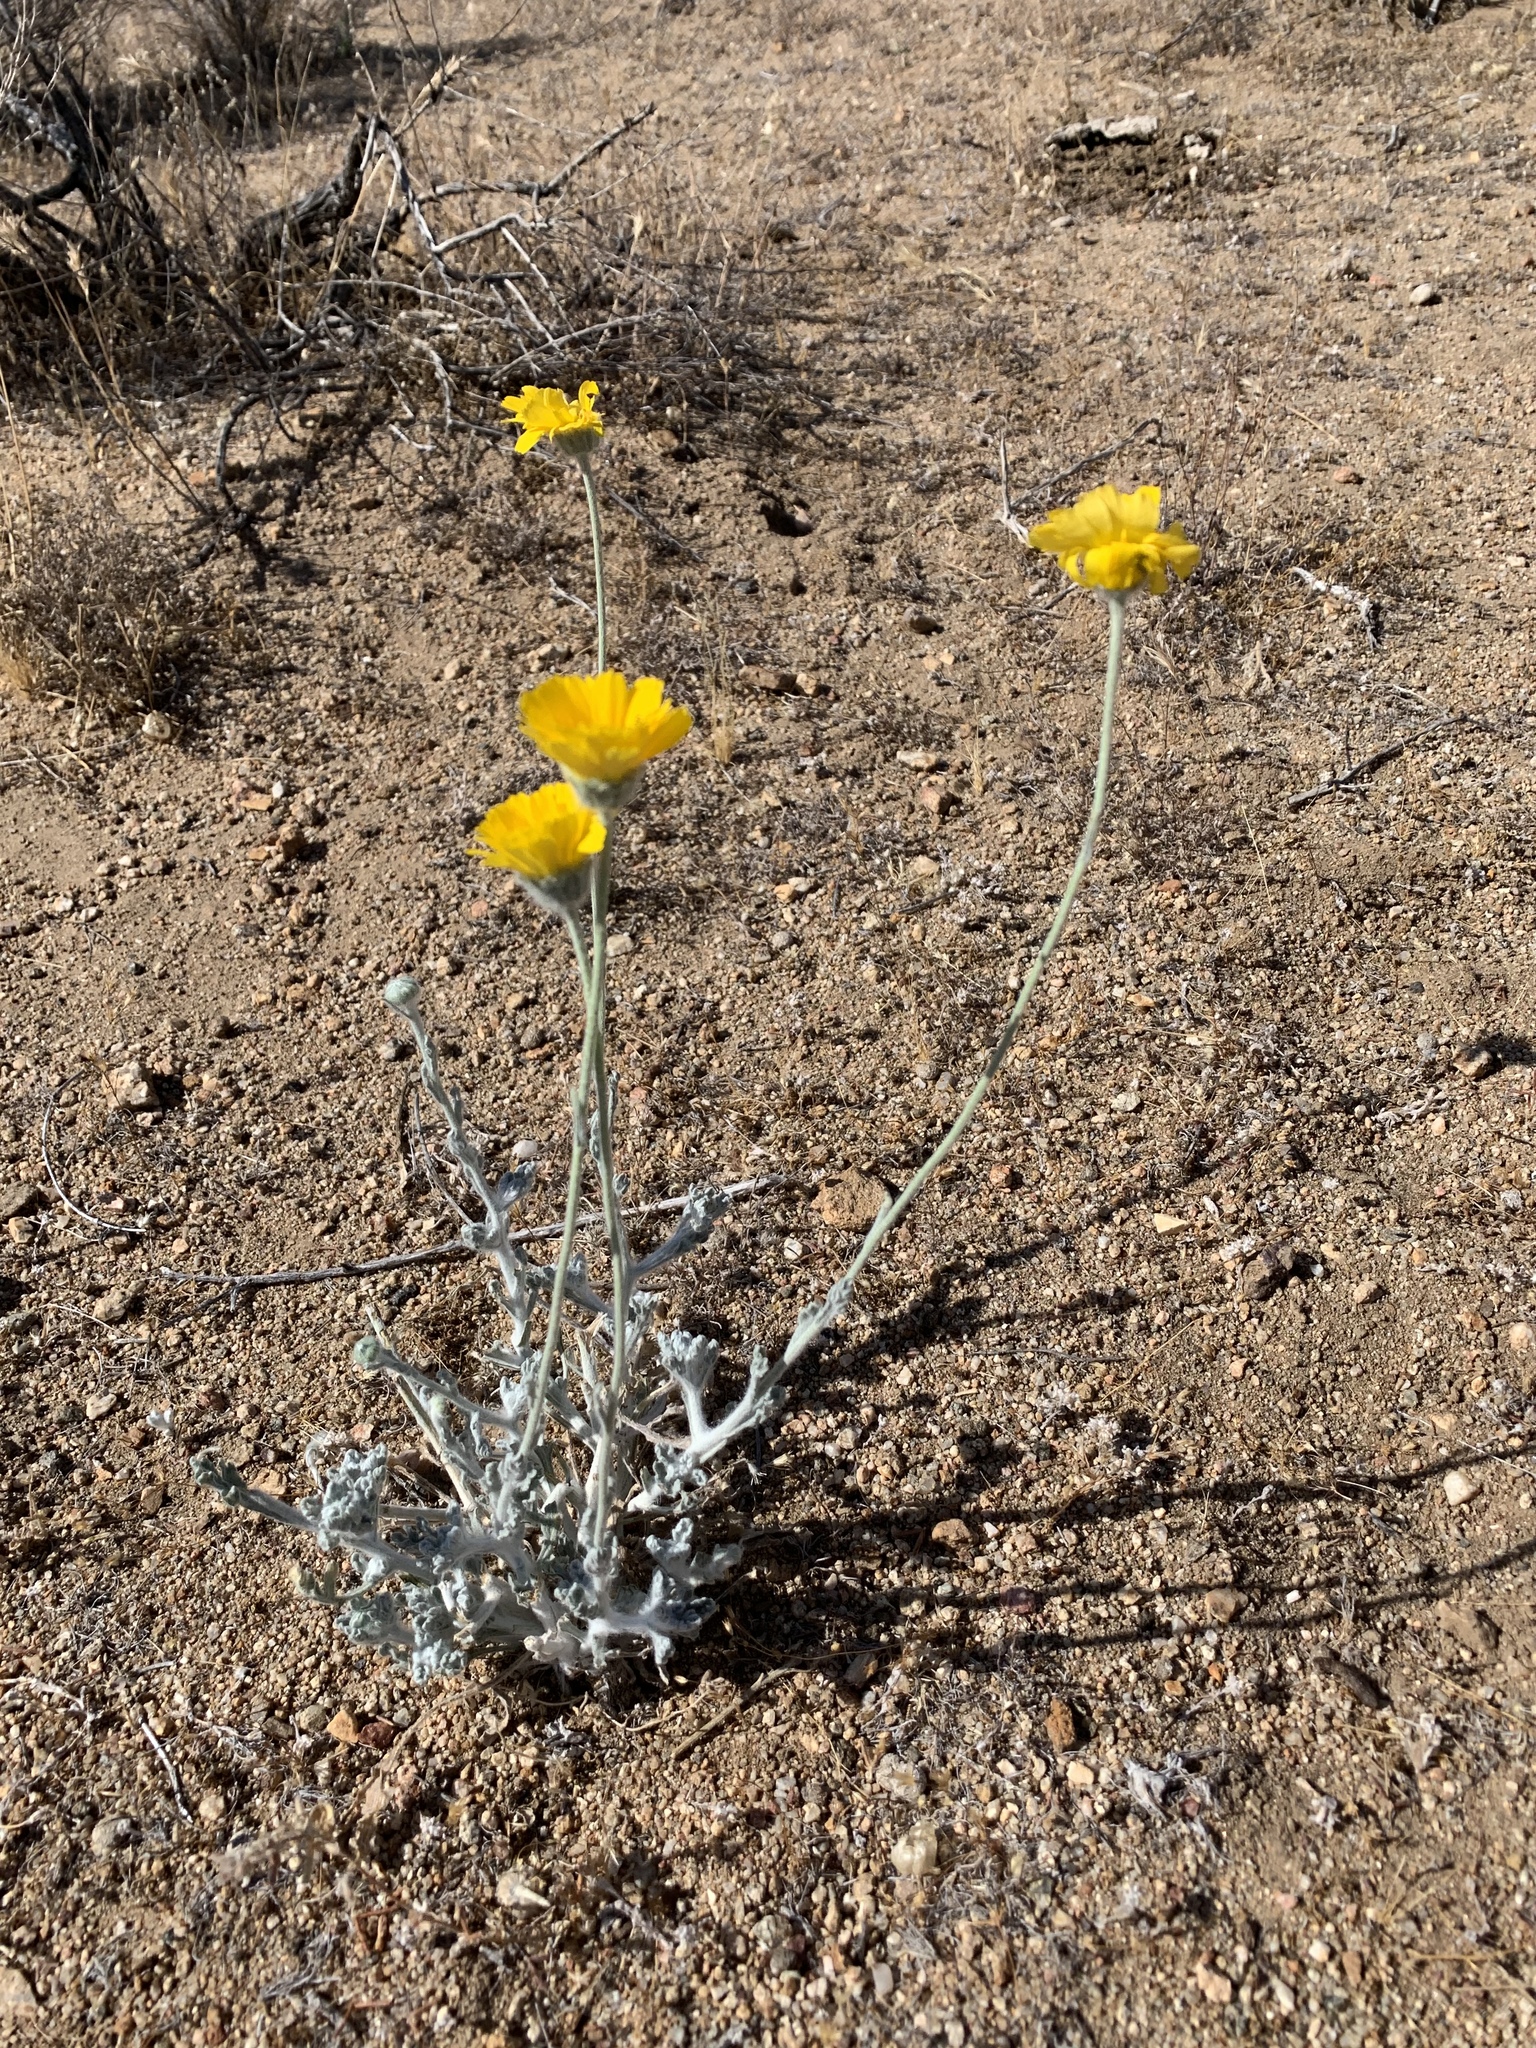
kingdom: Plantae
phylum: Tracheophyta
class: Magnoliopsida
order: Asterales
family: Asteraceae
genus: Baileya
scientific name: Baileya multiradiata
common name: Desert-marigold
